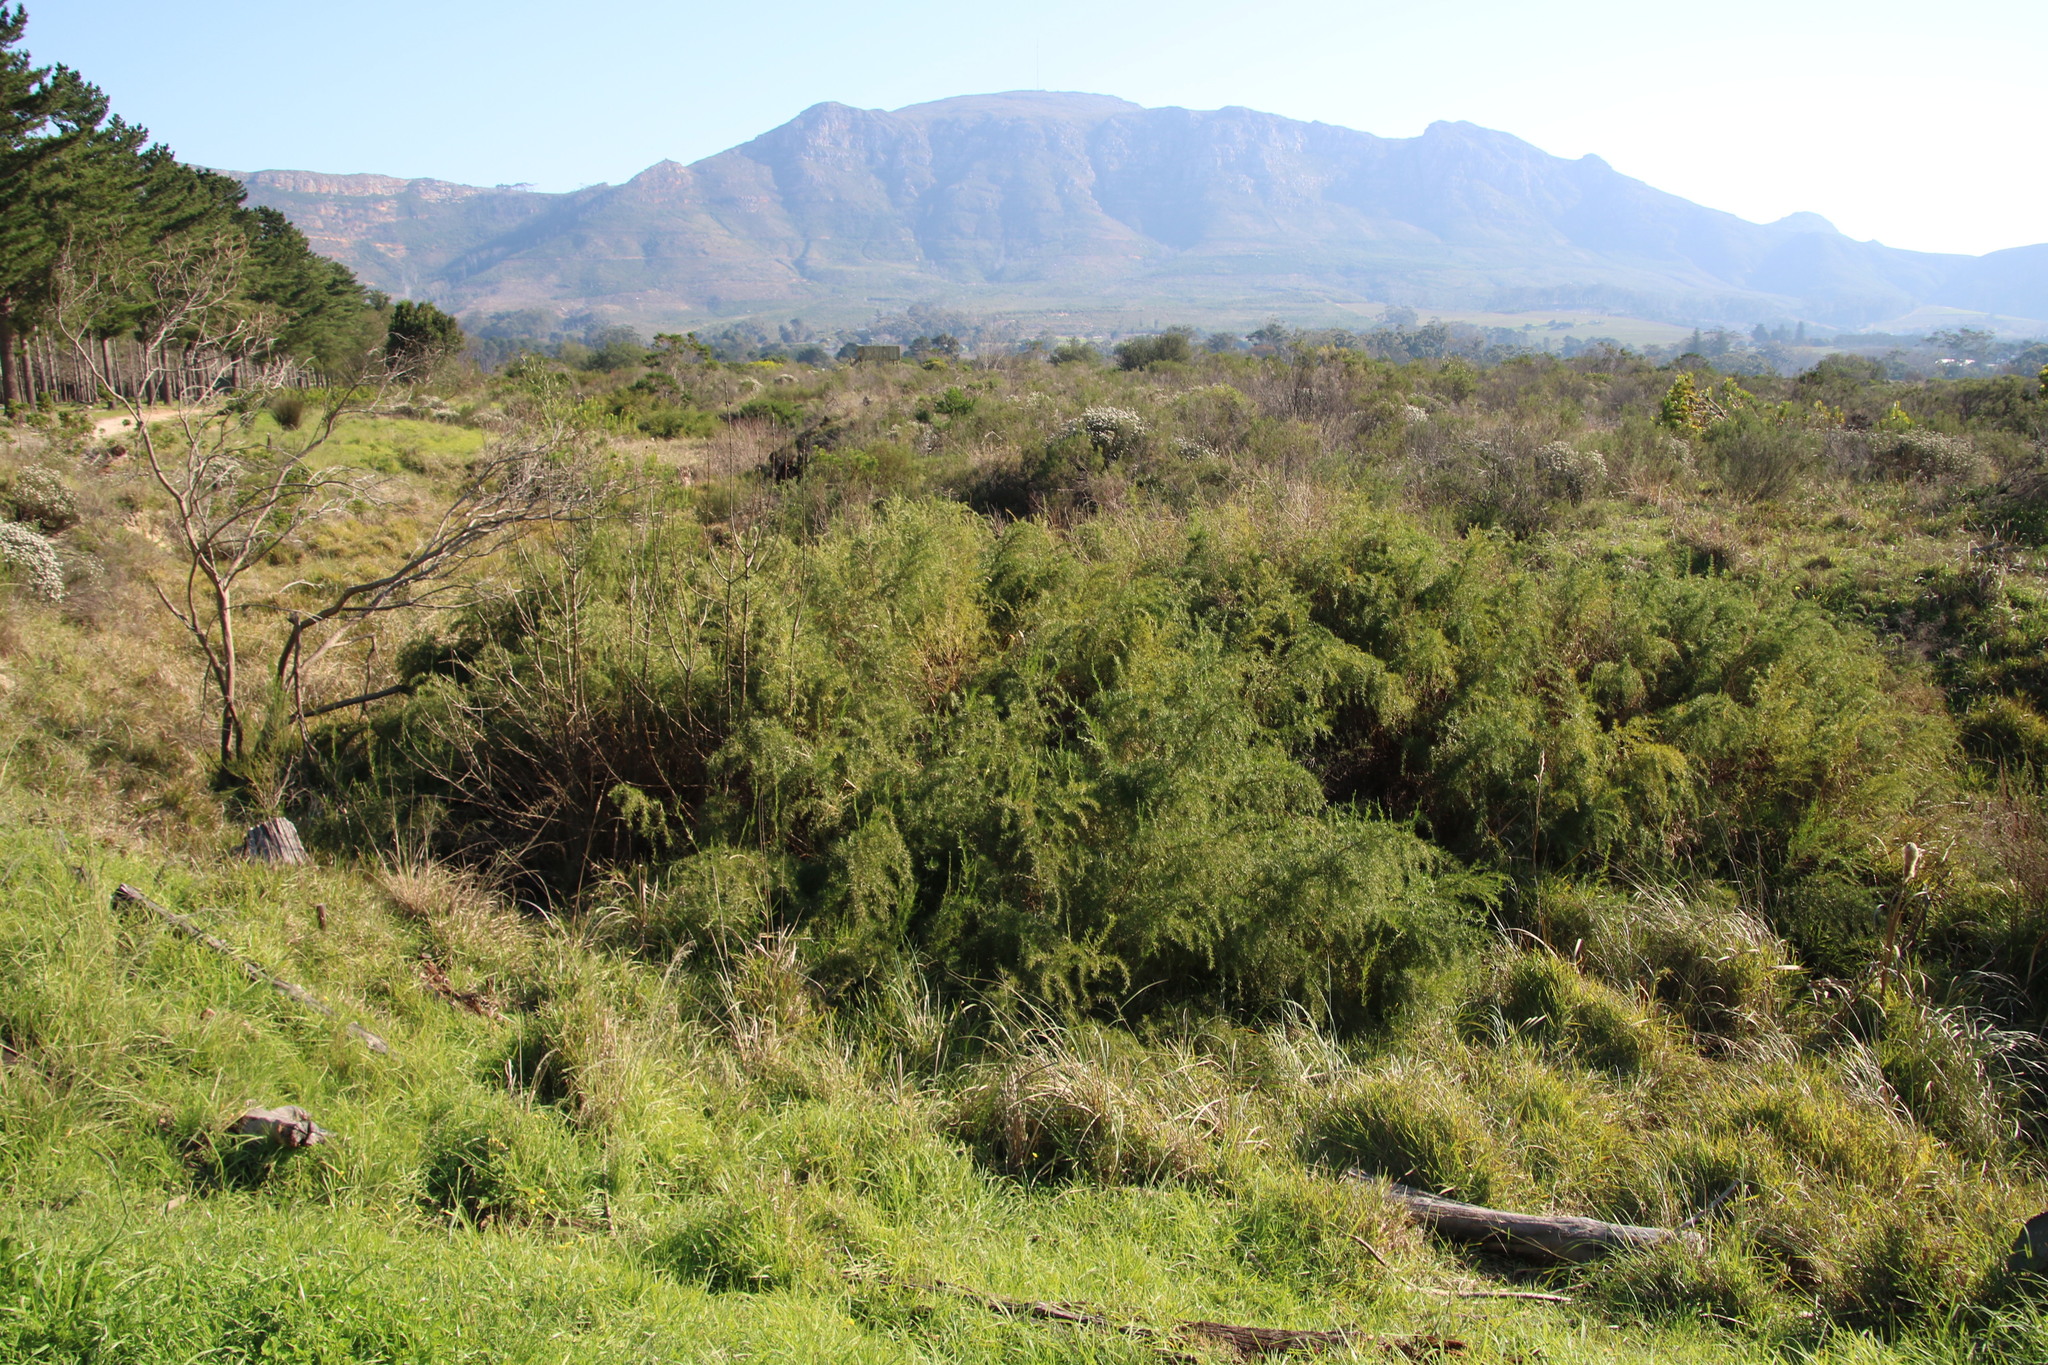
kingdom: Plantae
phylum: Tracheophyta
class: Magnoliopsida
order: Rosales
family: Rosaceae
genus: Cliffortia
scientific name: Cliffortia strobilifera
